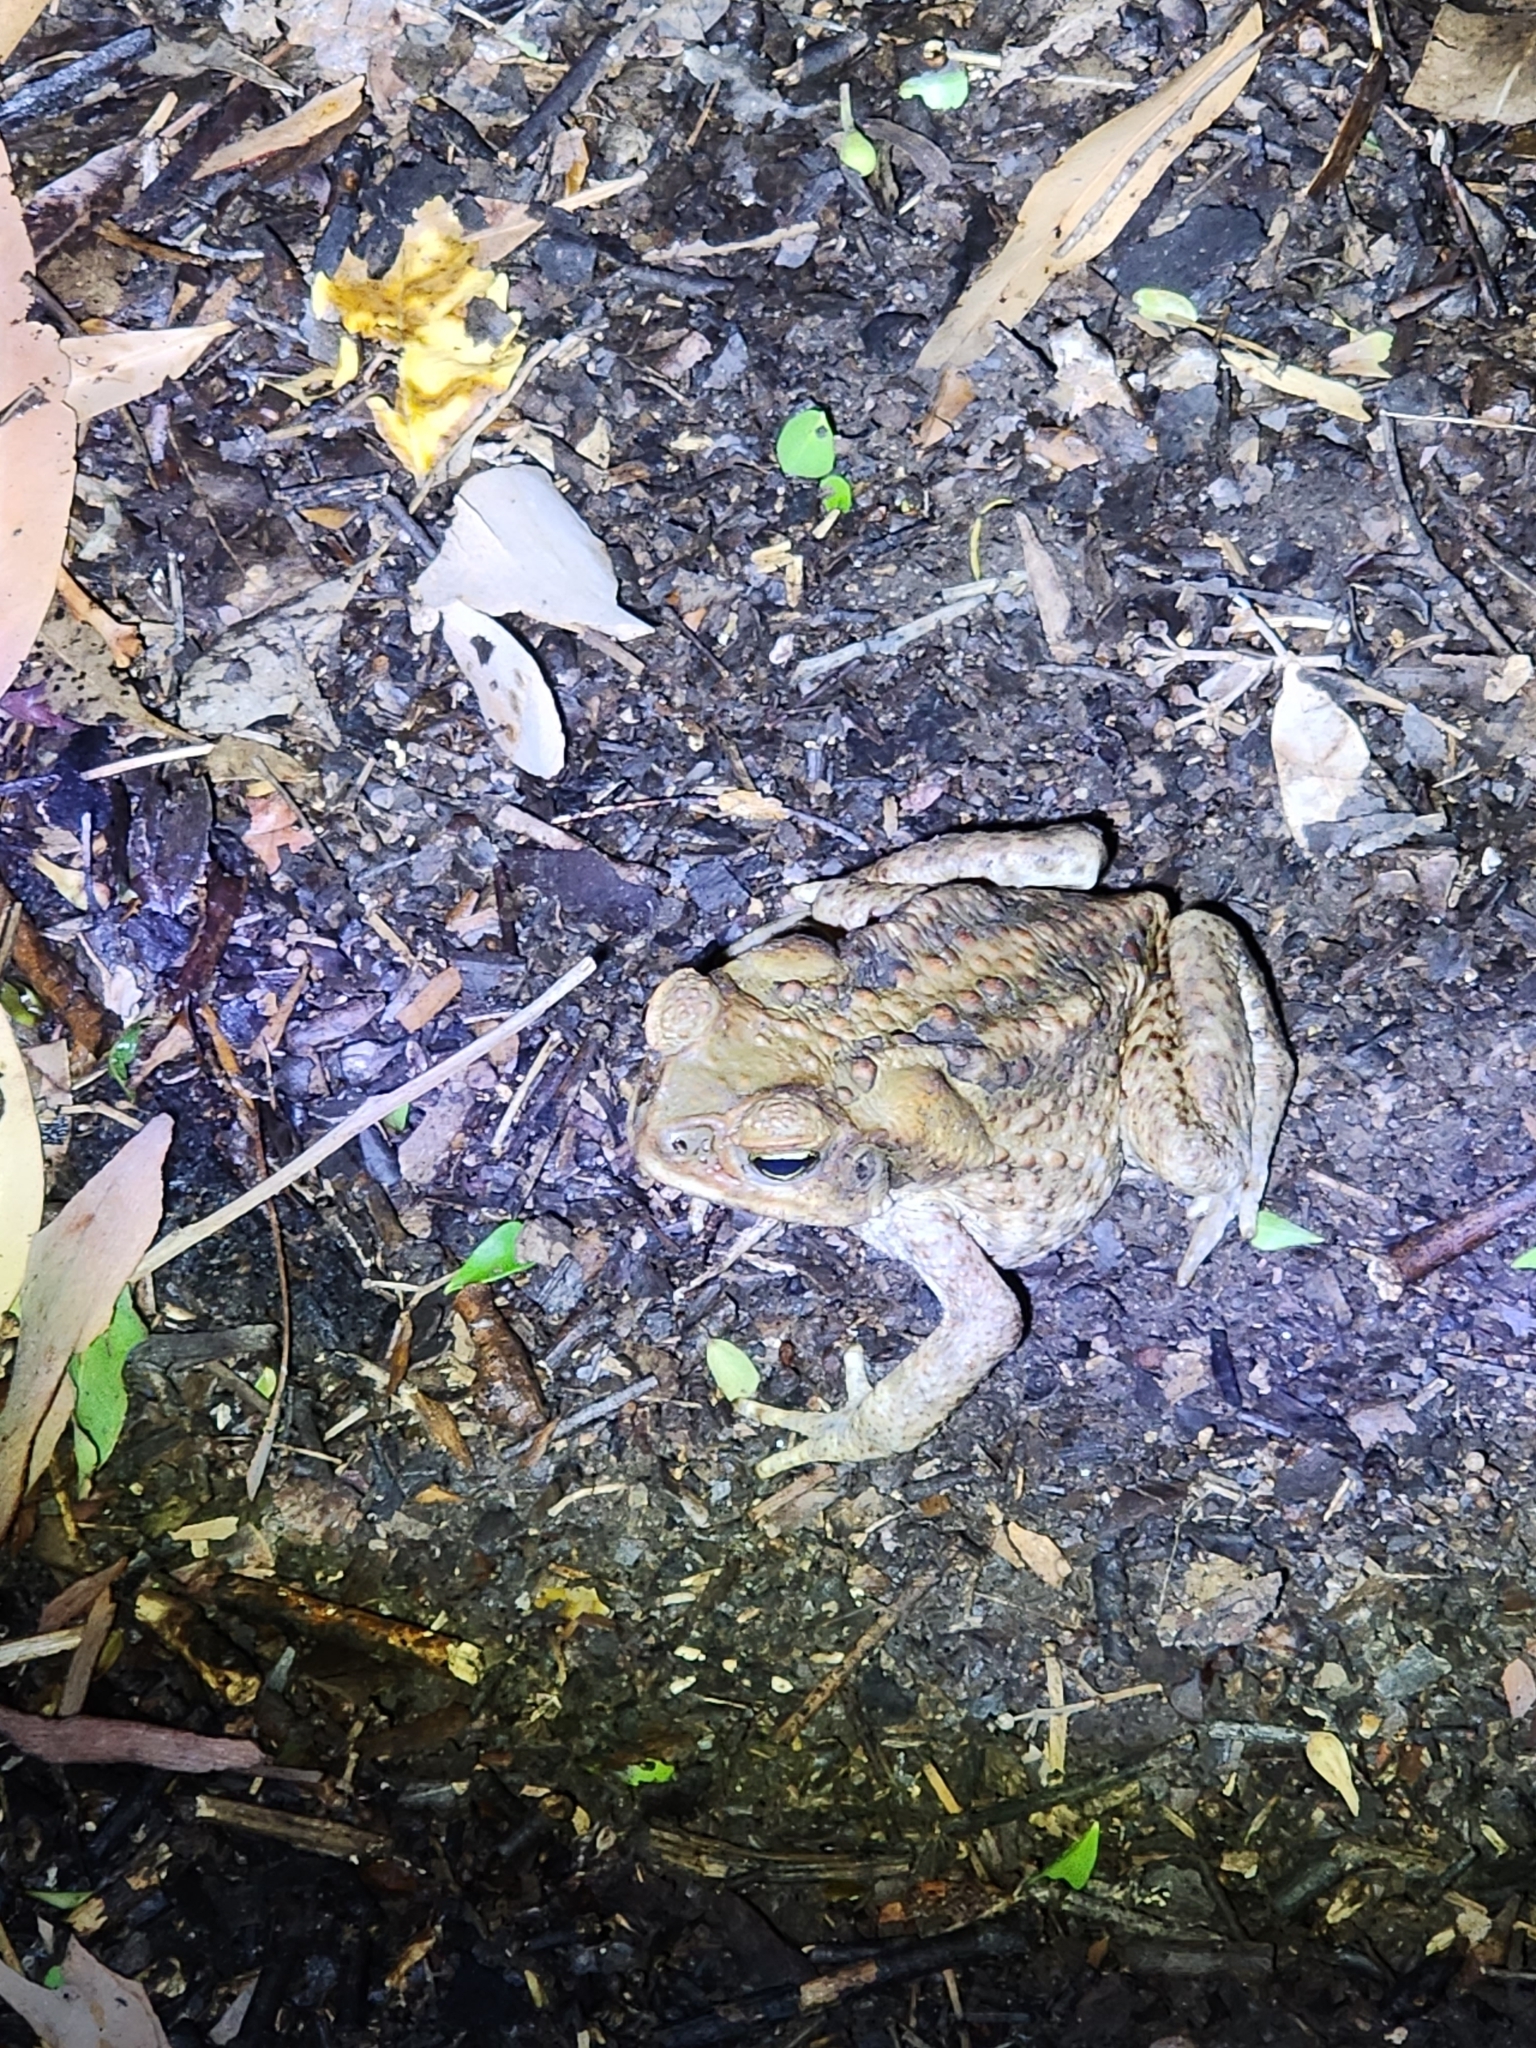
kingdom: Animalia
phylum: Chordata
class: Amphibia
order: Anura
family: Bufonidae
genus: Rhinella
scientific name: Rhinella marina
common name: Cane toad
